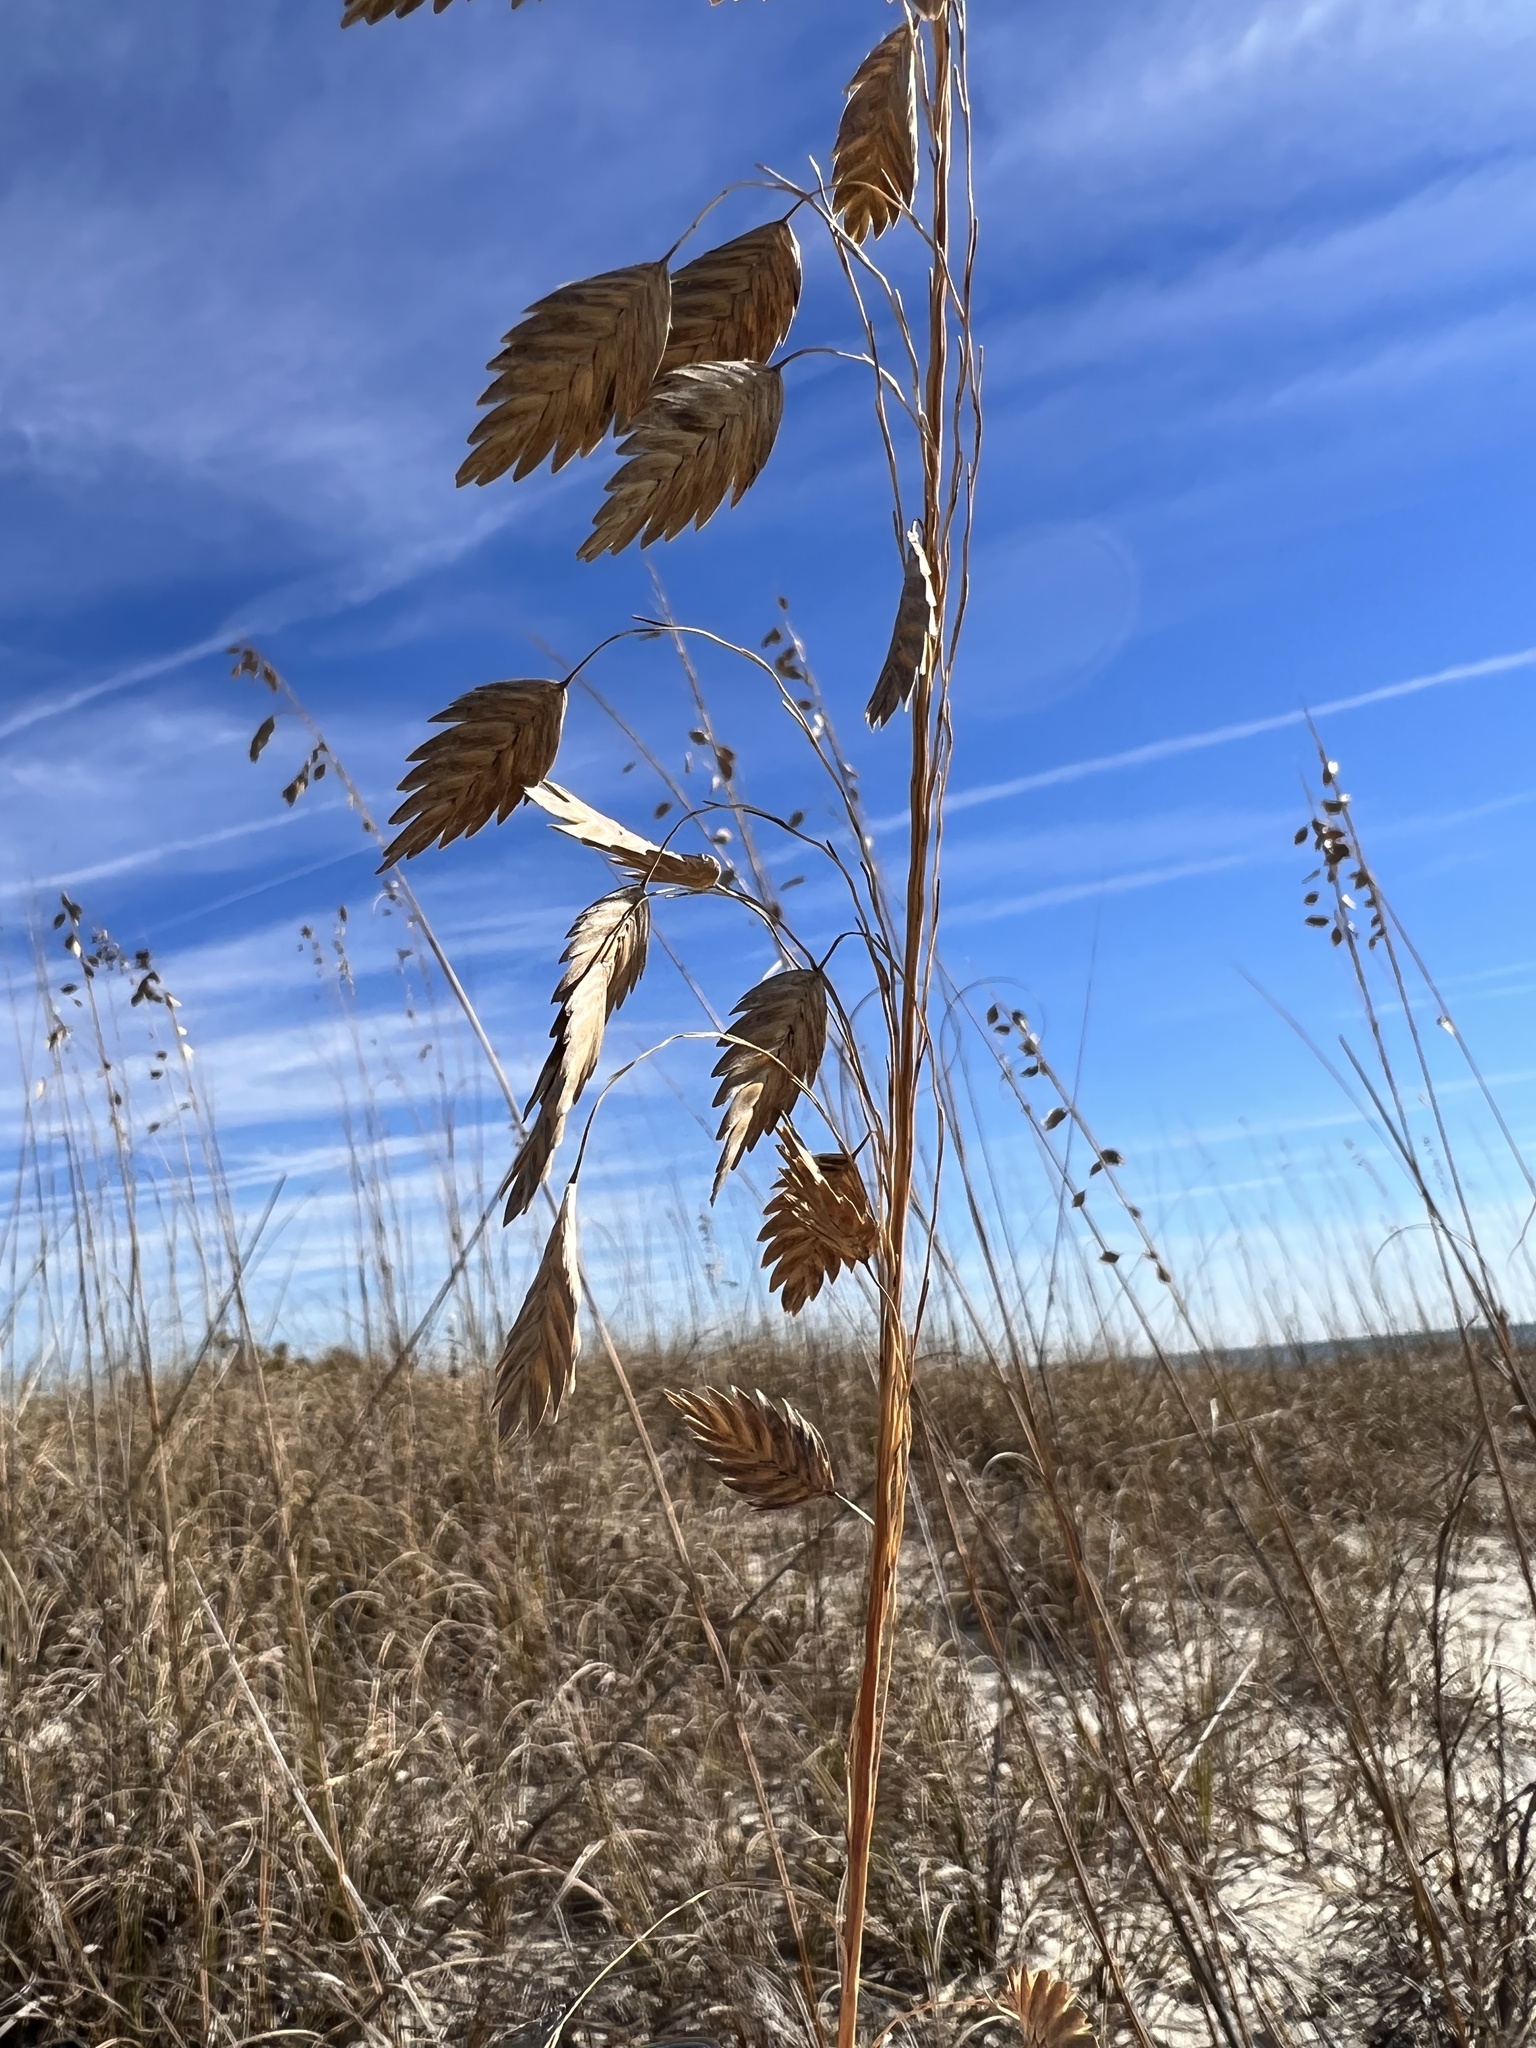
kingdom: Plantae
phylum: Tracheophyta
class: Liliopsida
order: Poales
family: Poaceae
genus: Uniola
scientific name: Uniola paniculata
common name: Seaside-oats
